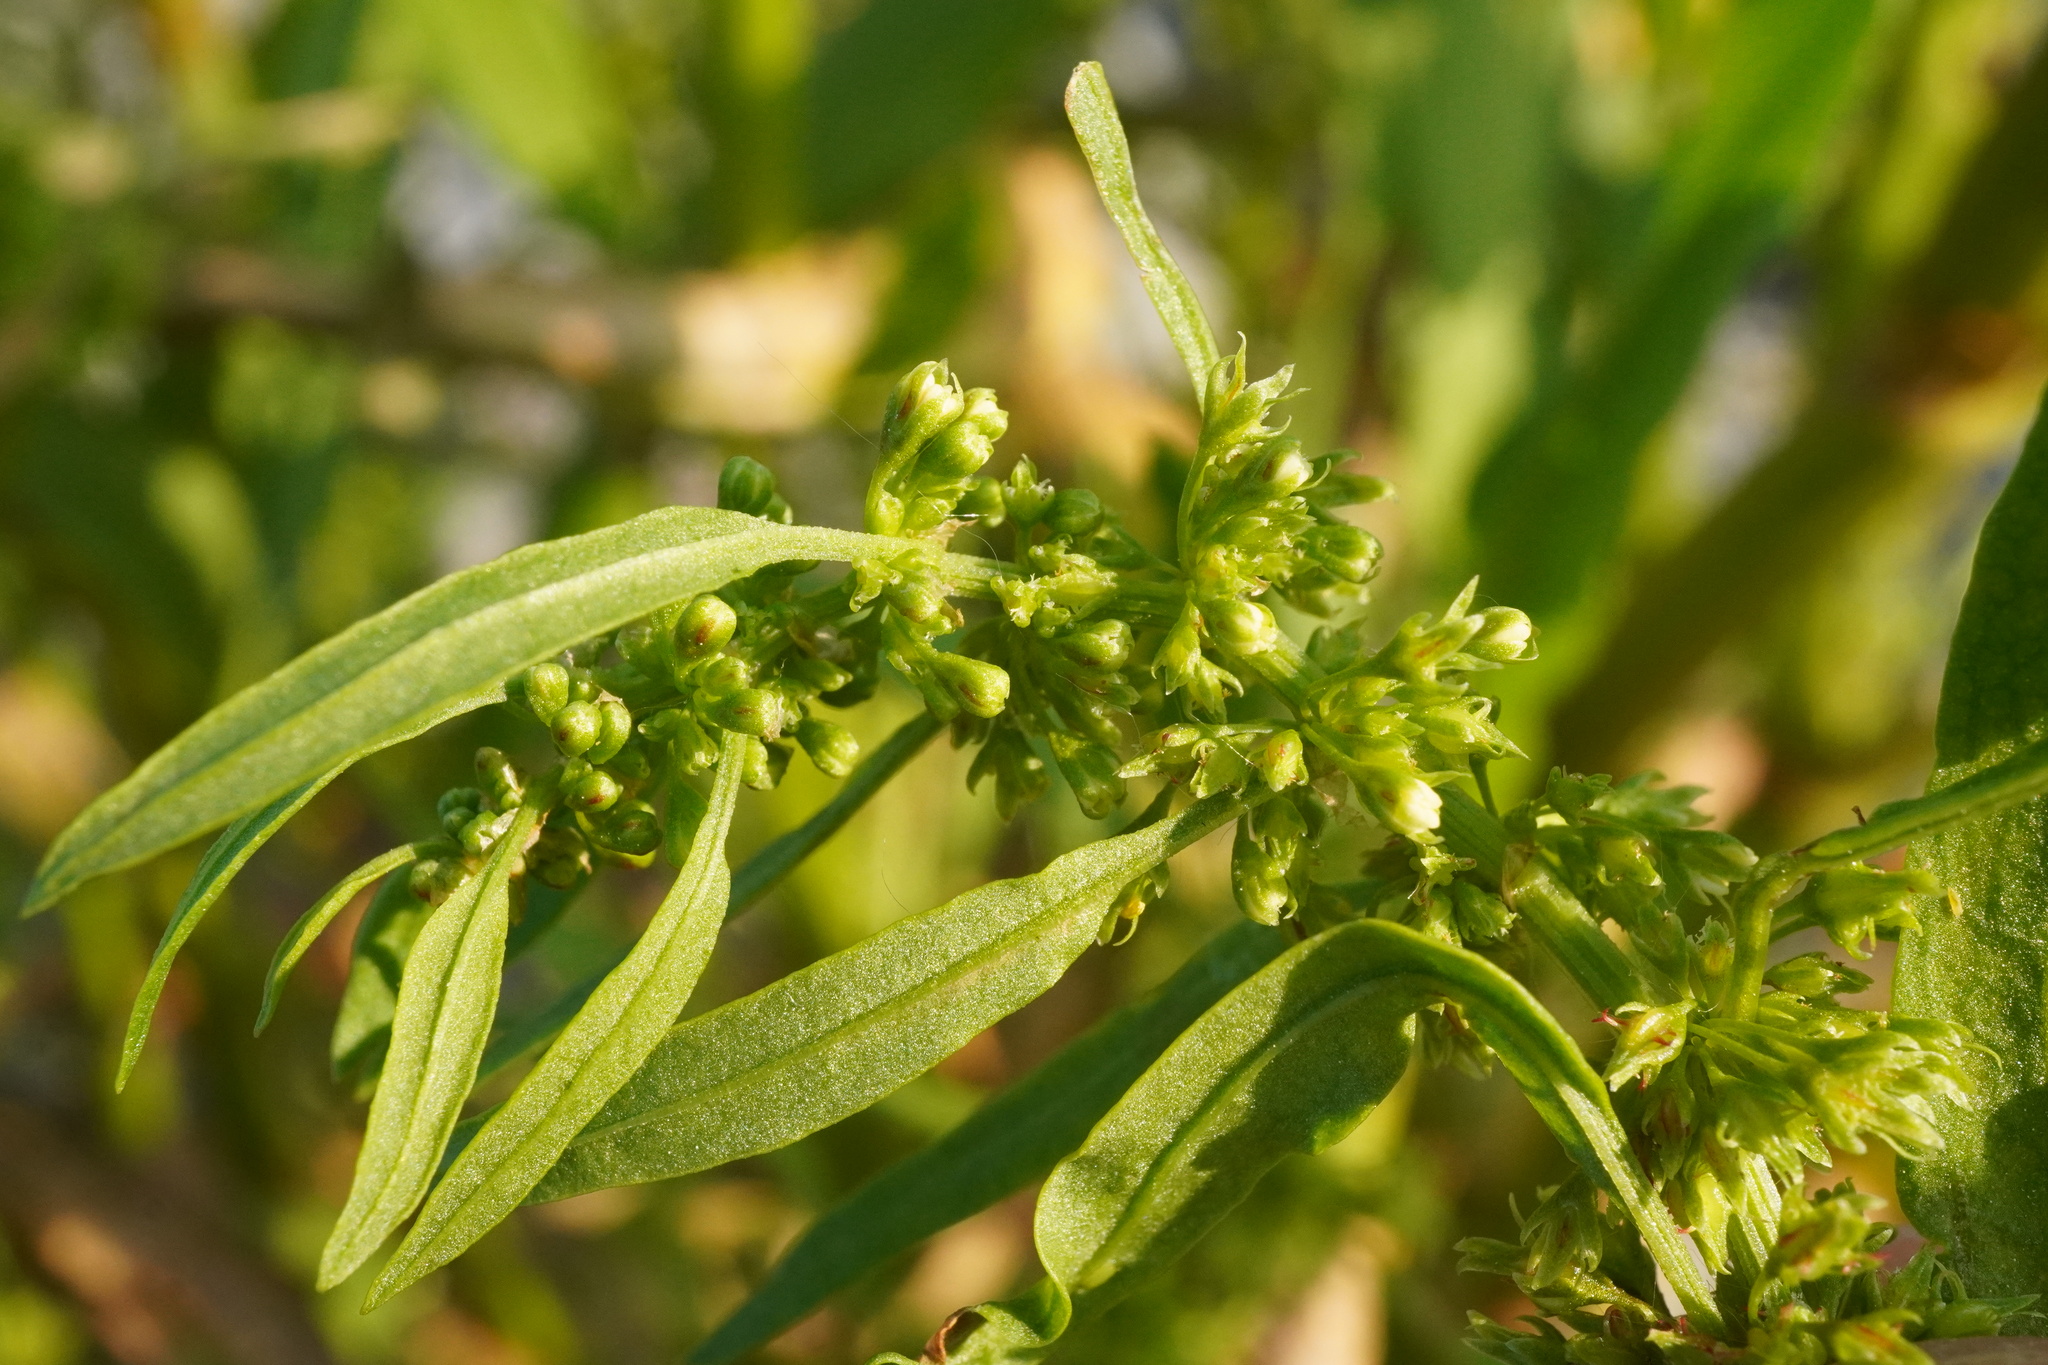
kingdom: Plantae
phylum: Tracheophyta
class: Magnoliopsida
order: Caryophyllales
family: Polygonaceae
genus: Rumex
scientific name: Rumex maritimus
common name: Golden dock
